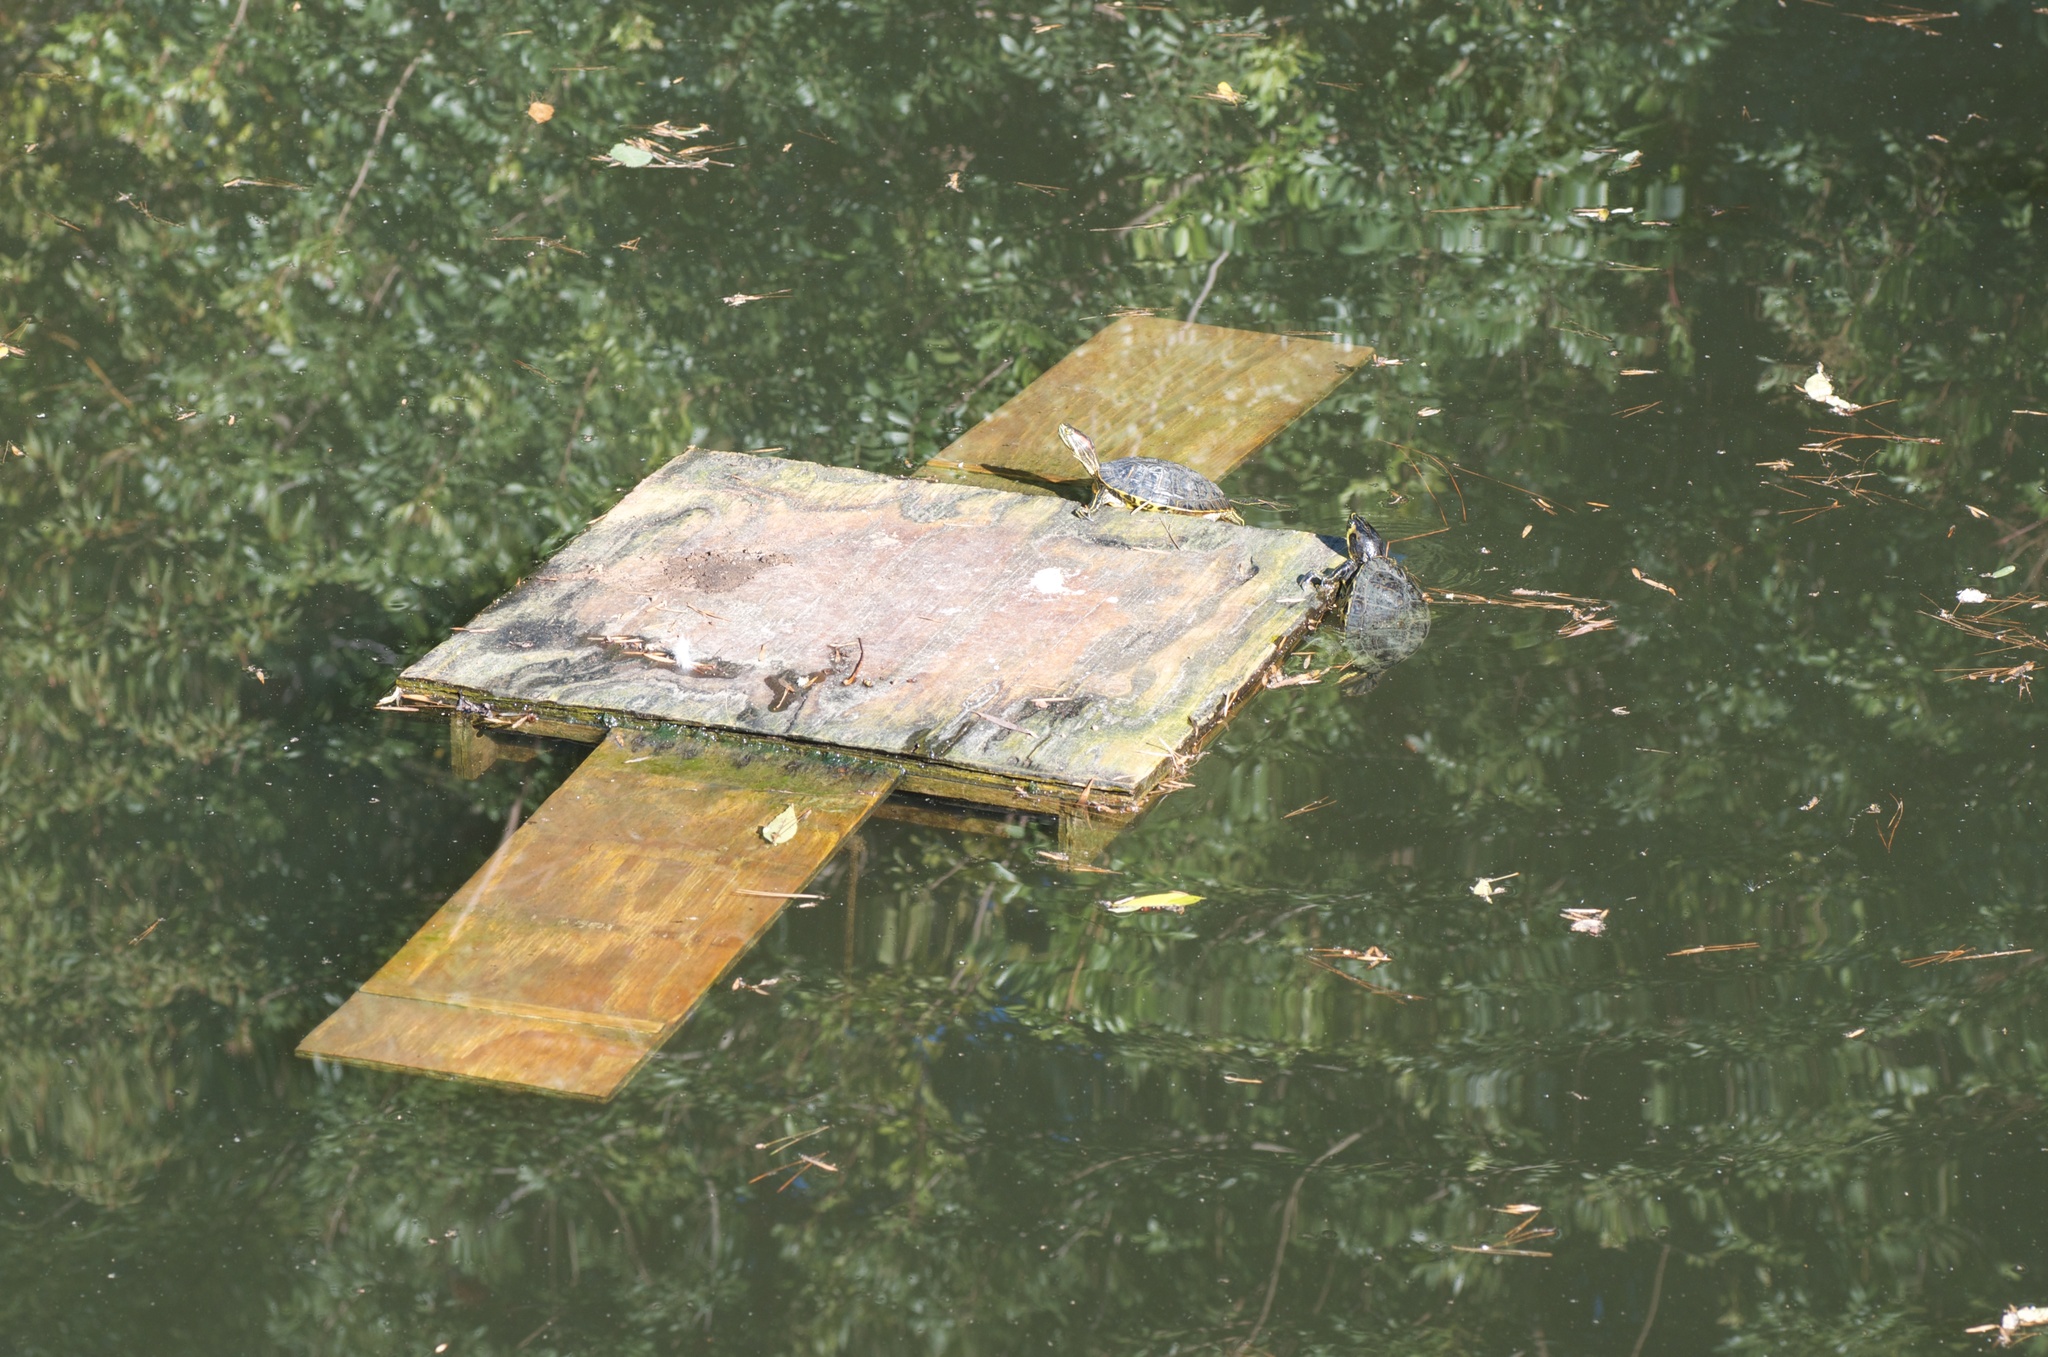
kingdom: Animalia
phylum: Chordata
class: Testudines
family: Emydidae
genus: Trachemys
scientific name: Trachemys scripta
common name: Slider
